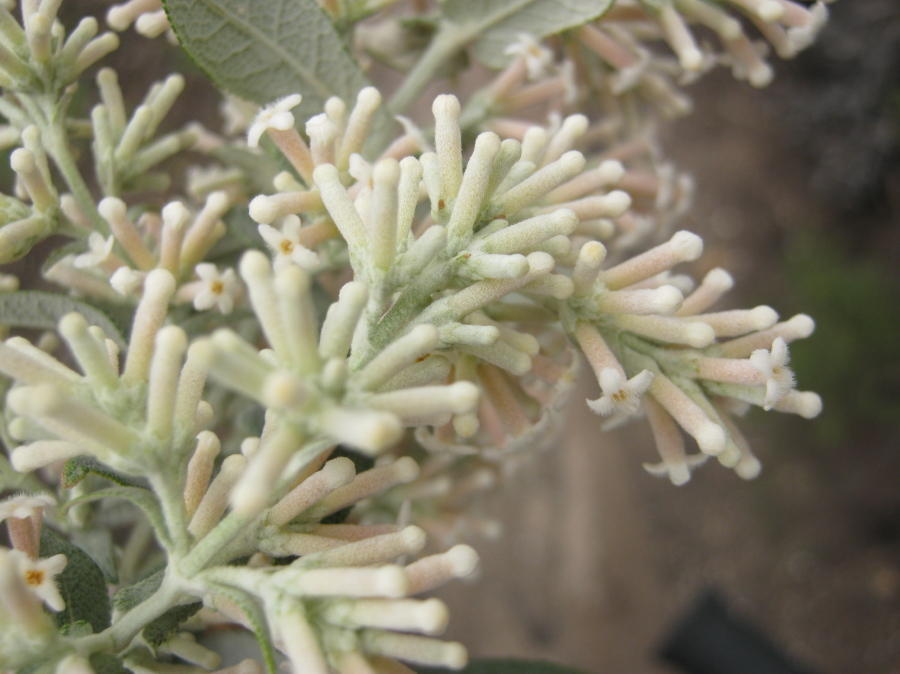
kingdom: Plantae
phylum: Tracheophyta
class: Magnoliopsida
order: Lamiales
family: Scrophulariaceae
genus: Buddleja
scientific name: Buddleja salviifolia
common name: Sagewood
